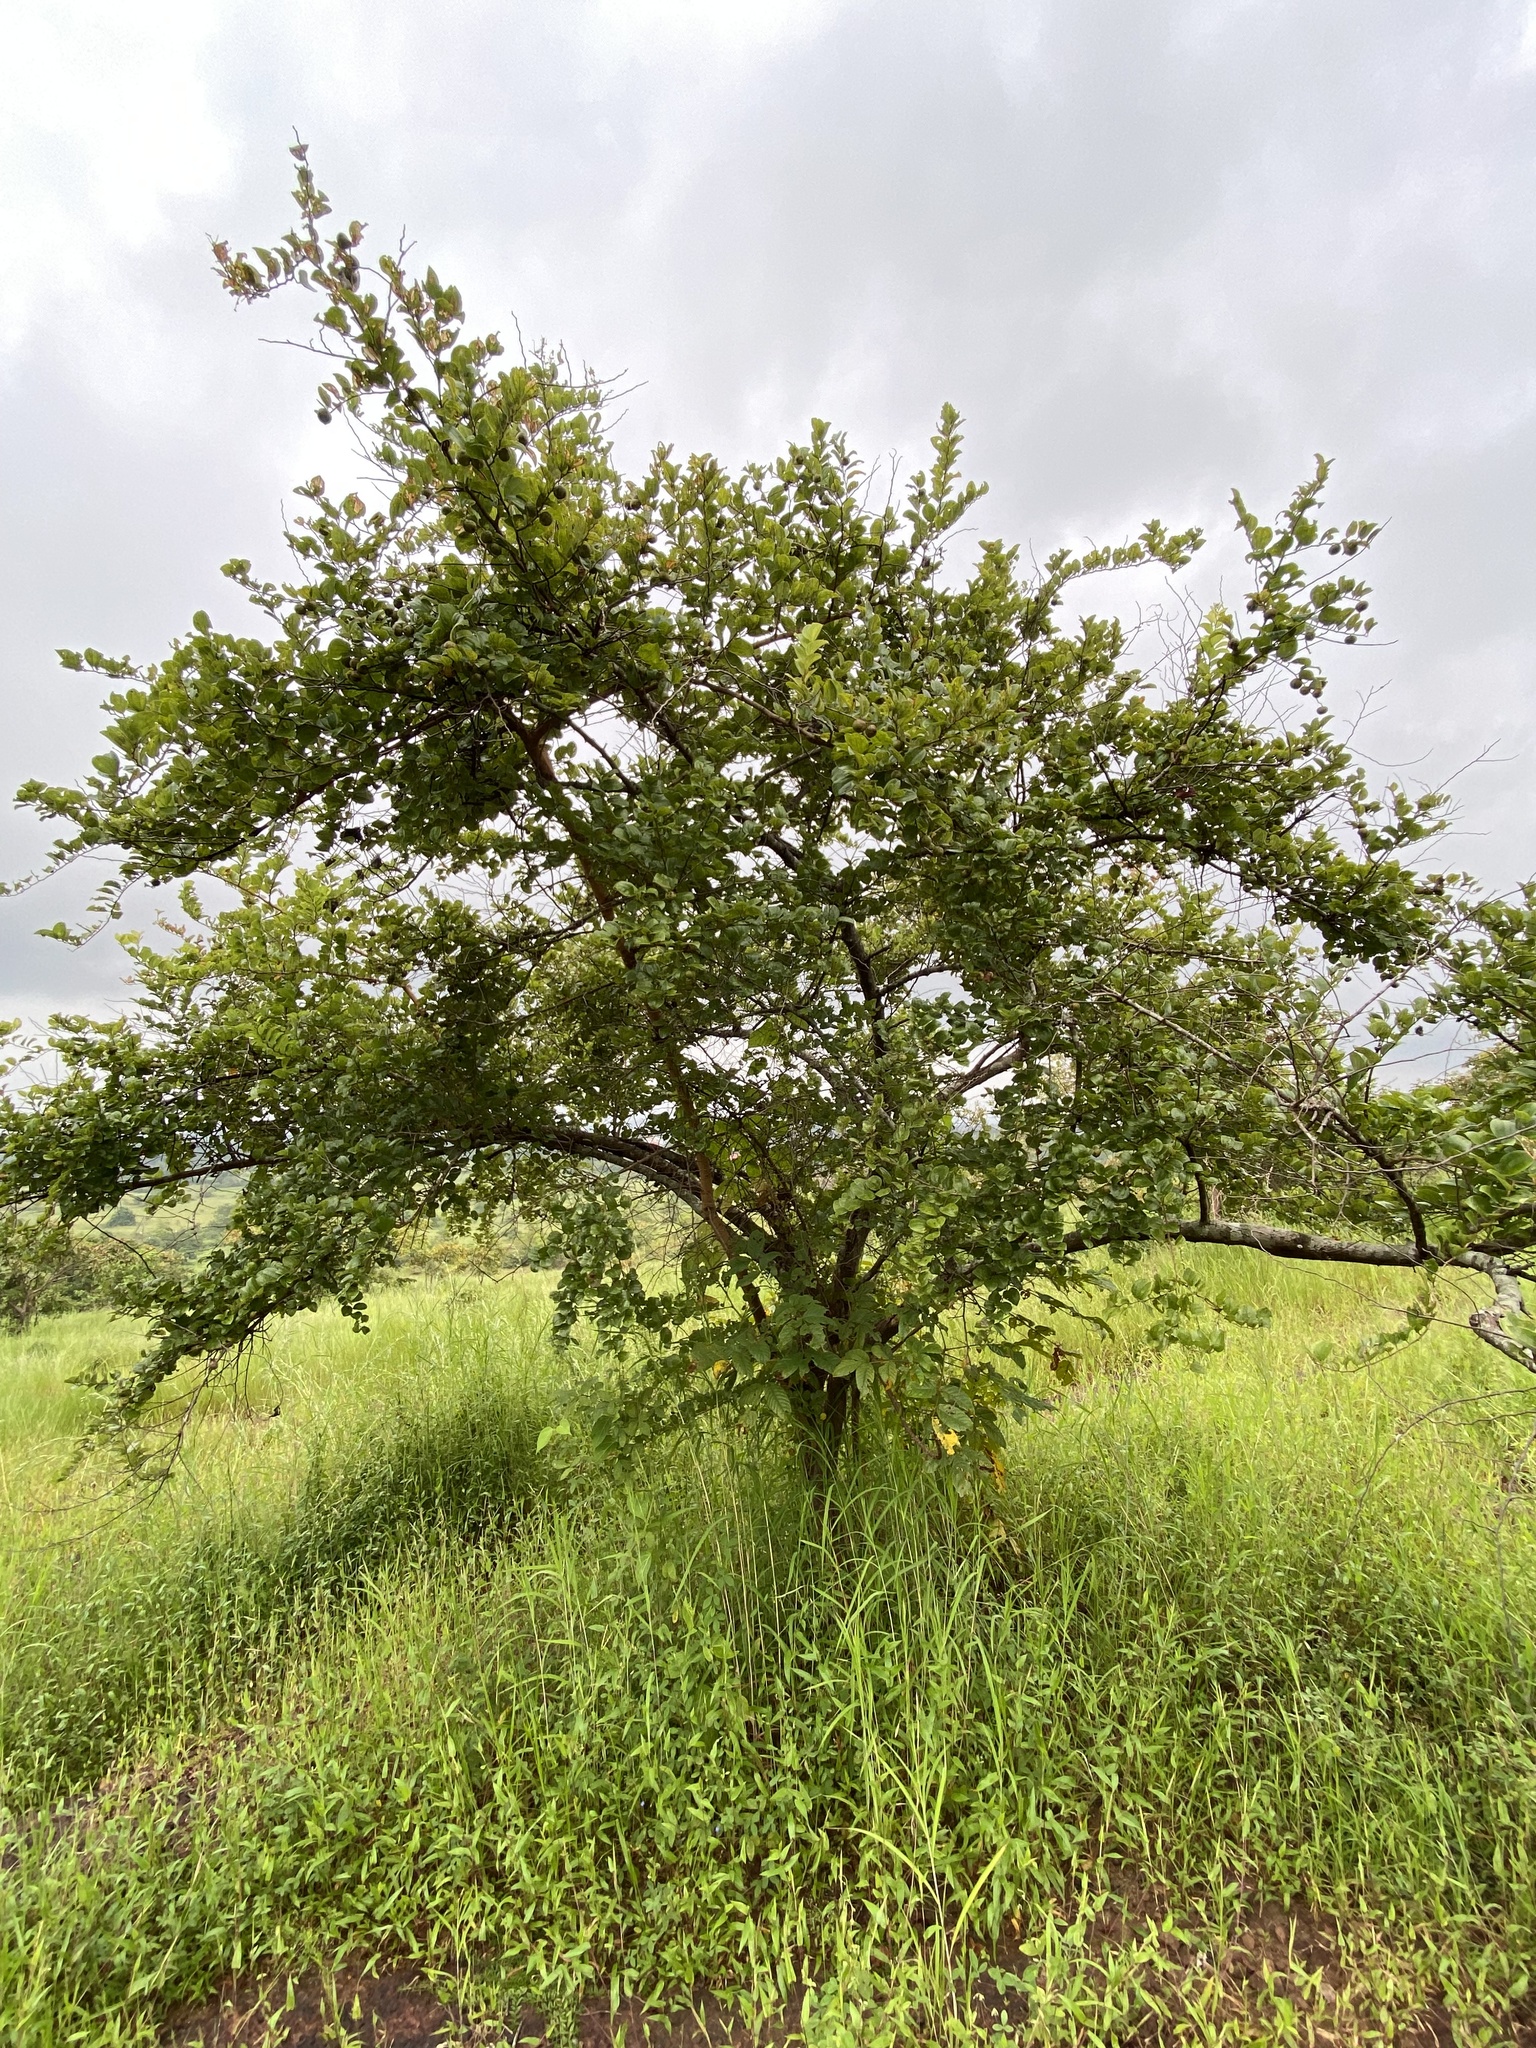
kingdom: Plantae
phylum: Tracheophyta
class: Magnoliopsida
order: Gentianales
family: Rubiaceae
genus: Catunaregam
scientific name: Catunaregam spinosa
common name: Emetic-nut
